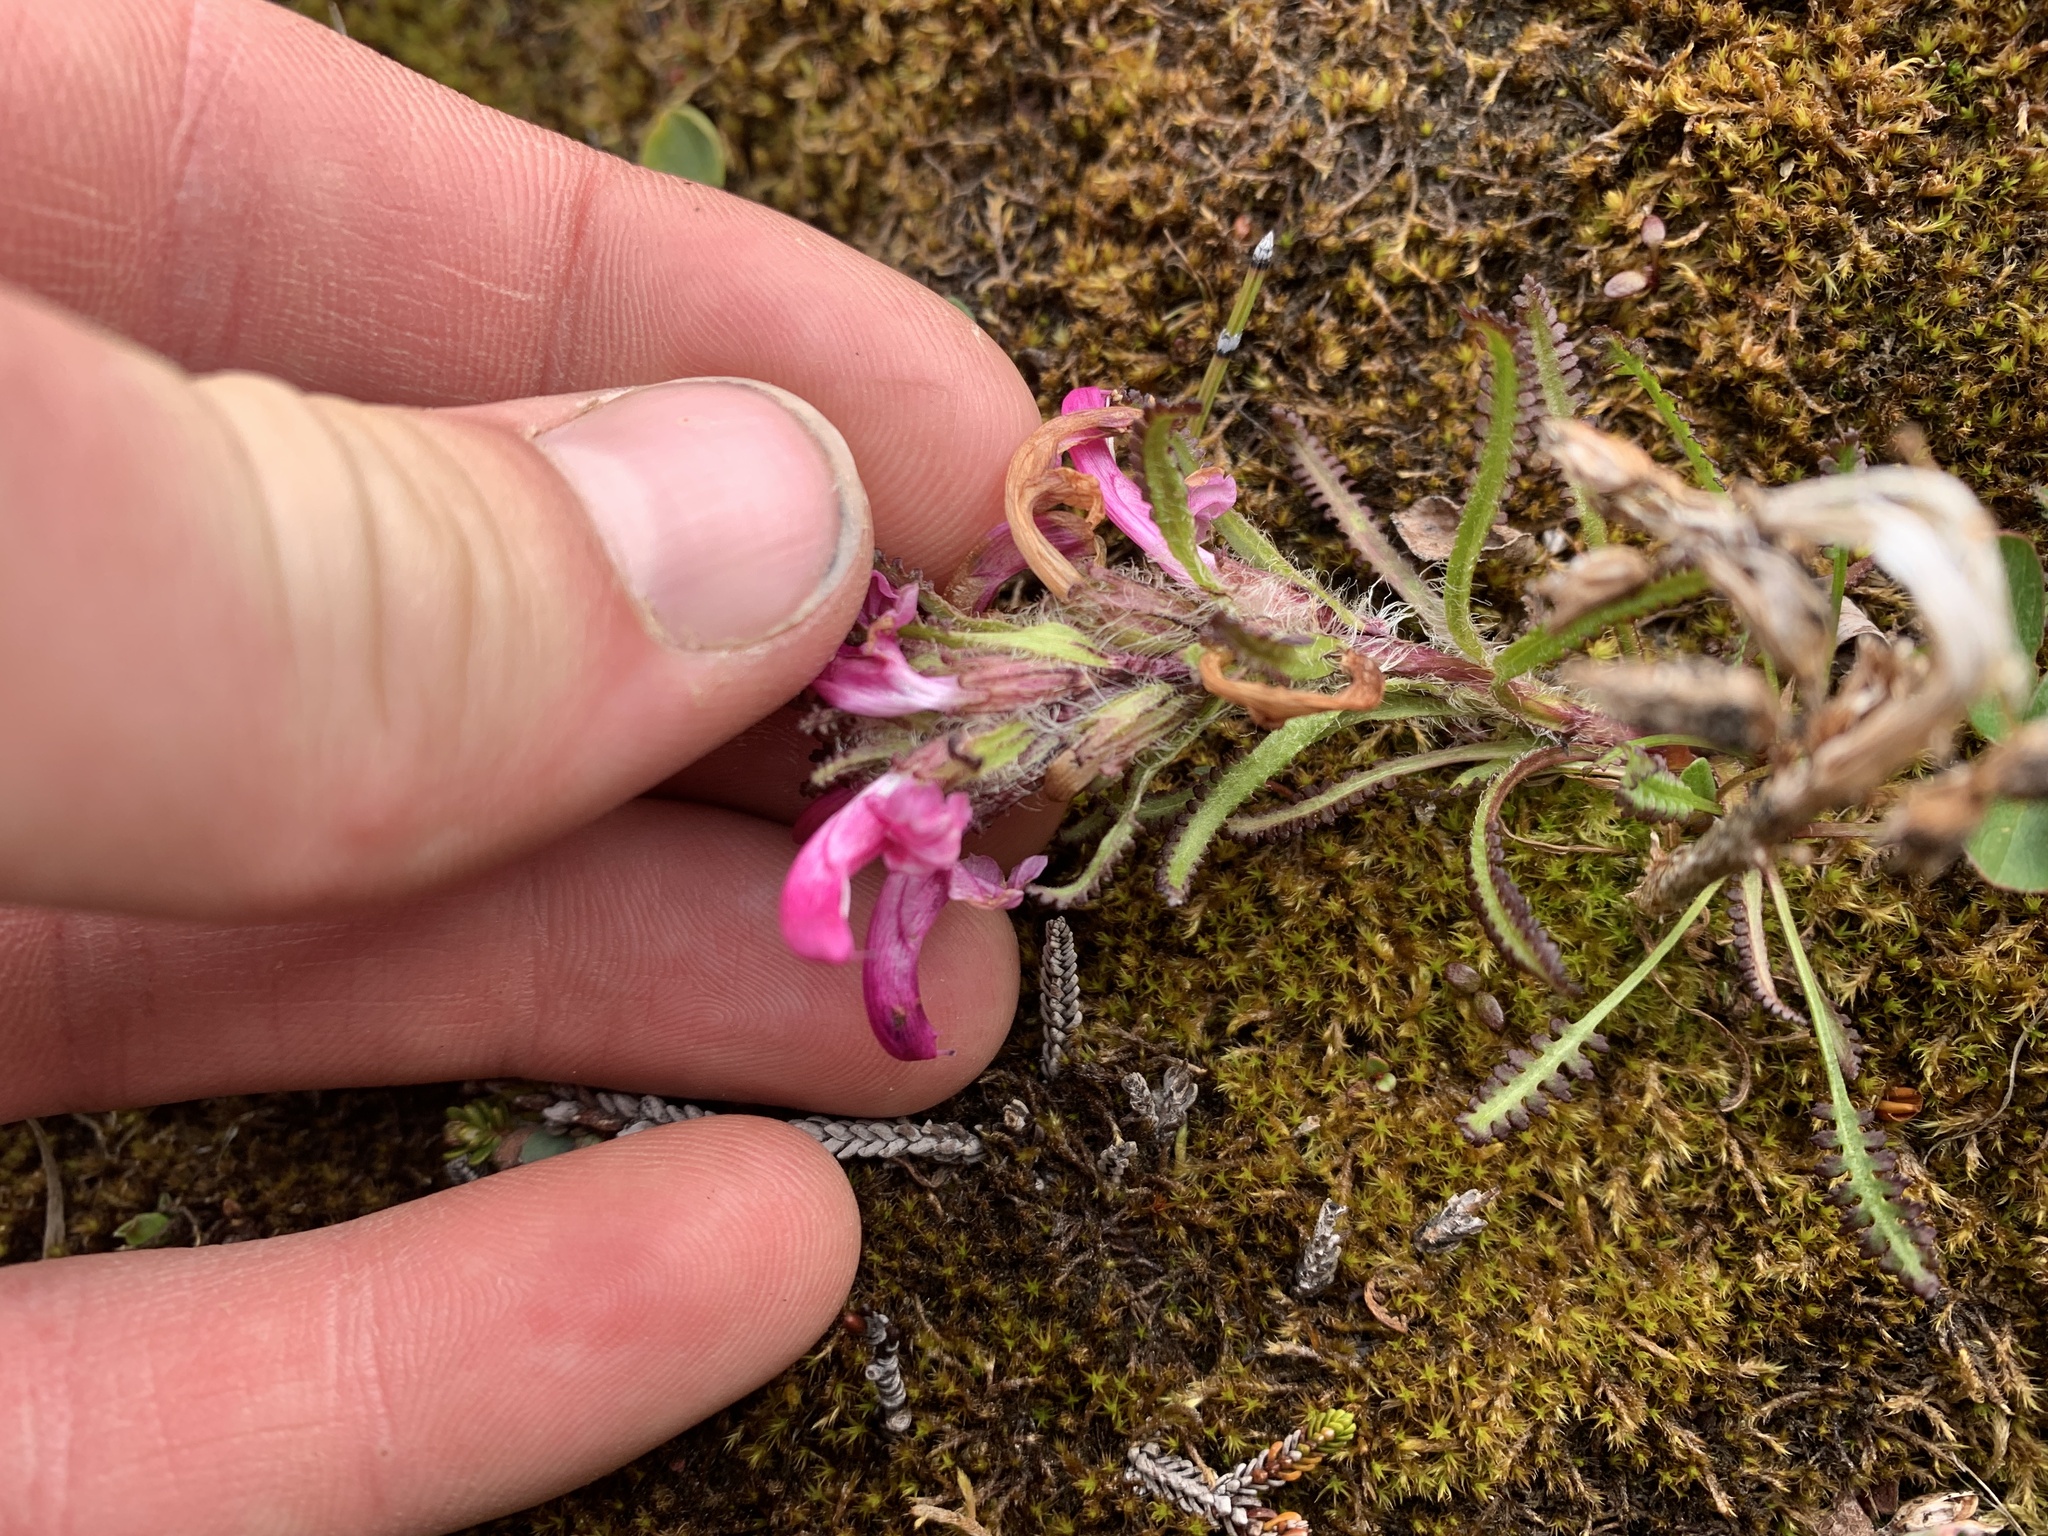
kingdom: Plantae
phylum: Tracheophyta
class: Magnoliopsida
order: Lamiales
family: Orobanchaceae
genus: Pedicularis
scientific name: Pedicularis langsdorffii
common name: Langsdorff's lousewort
